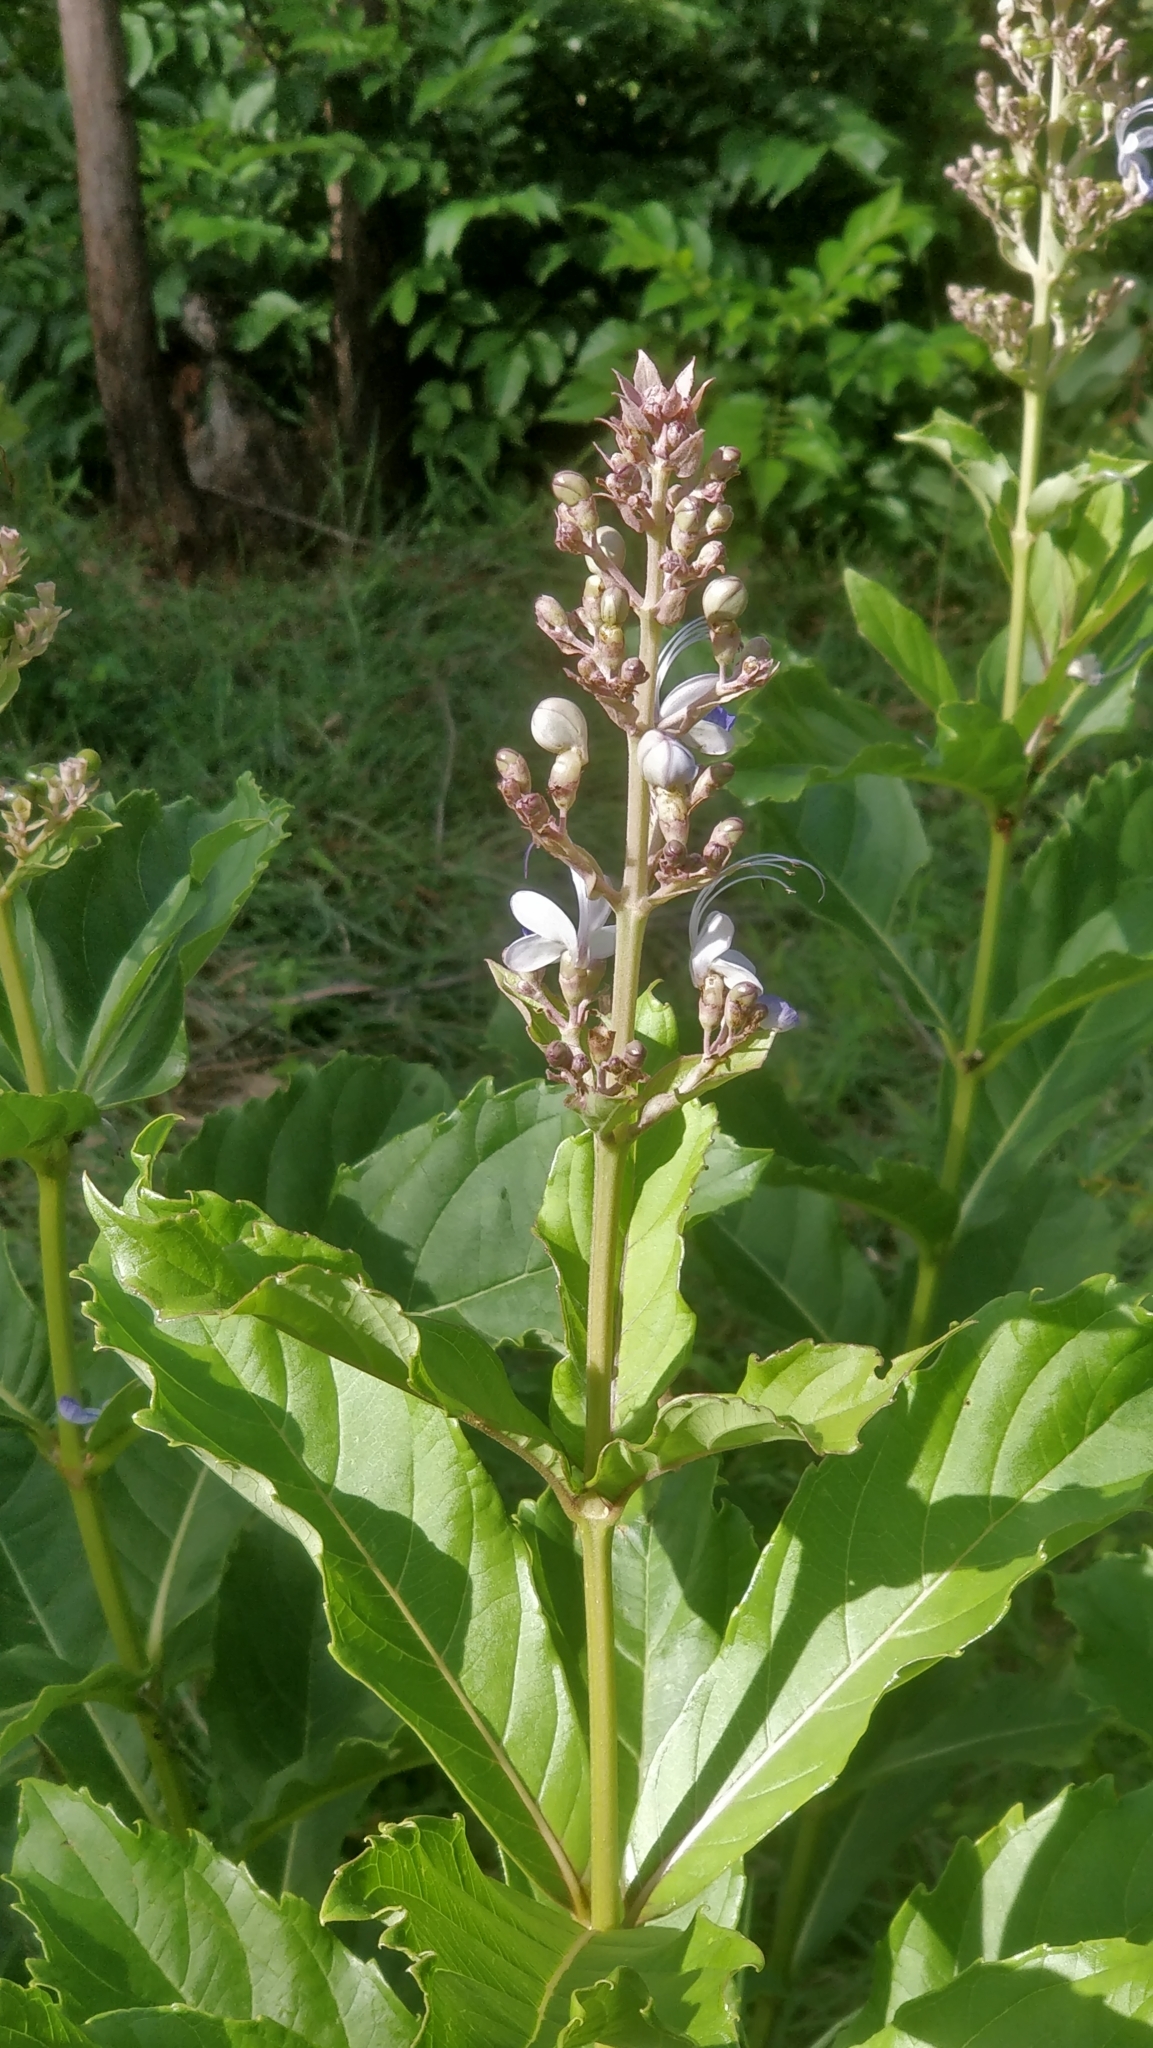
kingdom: Plantae
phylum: Tracheophyta
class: Magnoliopsida
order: Lamiales
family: Lamiaceae
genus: Rotheca
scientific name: Rotheca serrata
